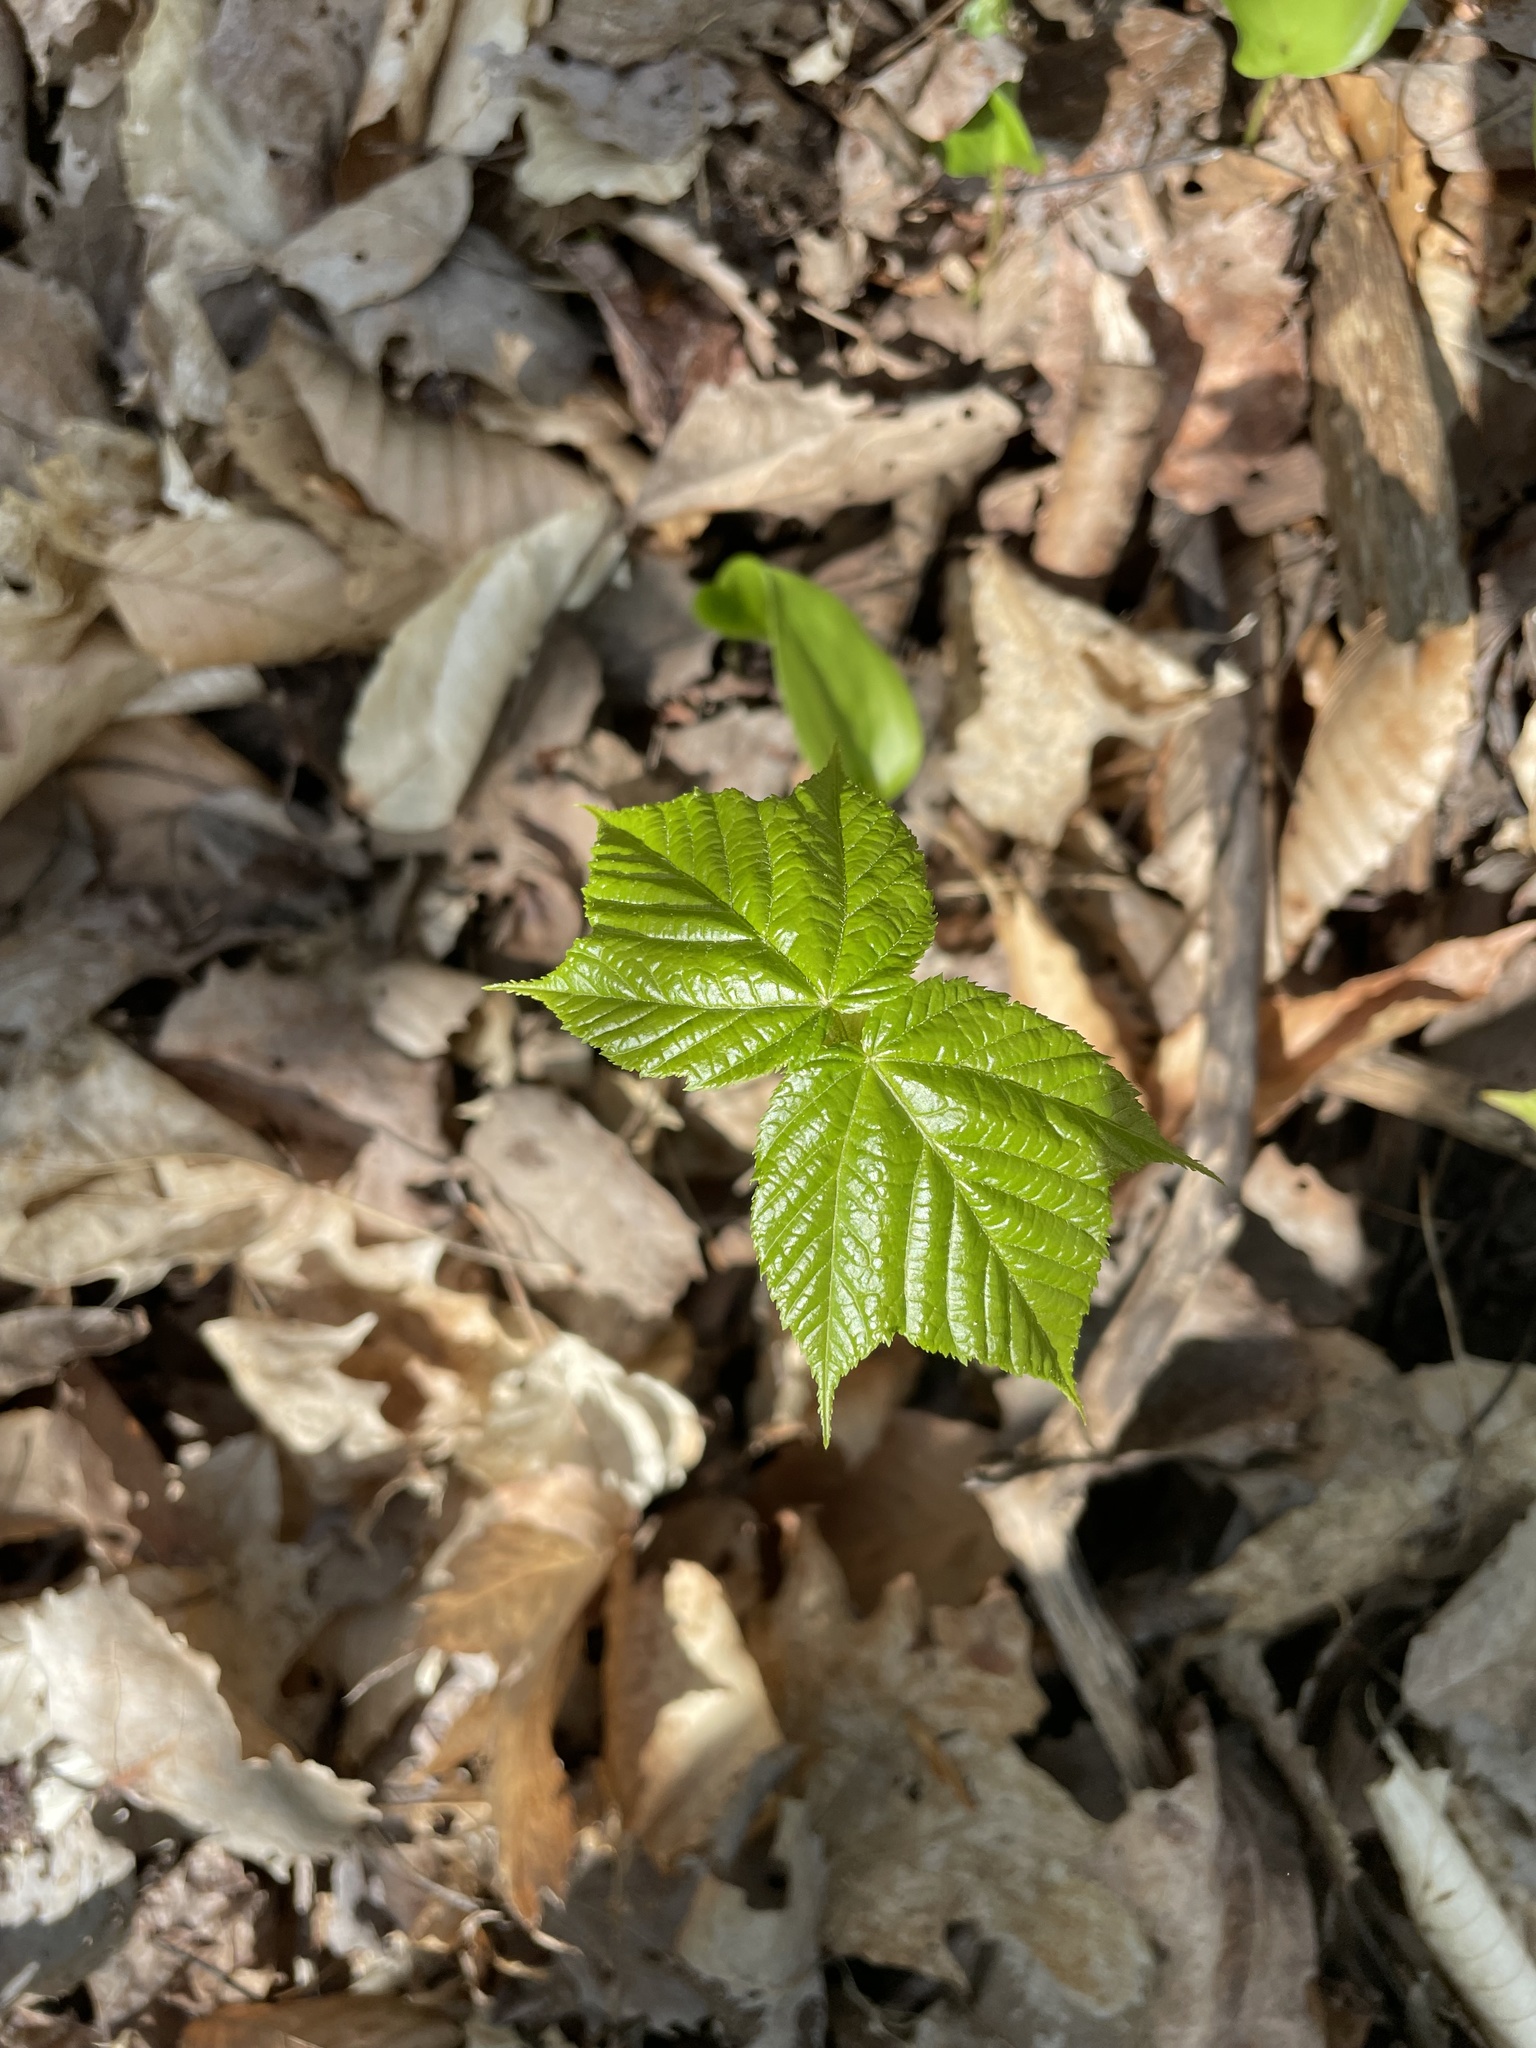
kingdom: Plantae
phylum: Tracheophyta
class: Magnoliopsida
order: Sapindales
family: Sapindaceae
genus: Acer
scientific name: Acer pensylvanicum
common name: Moosewood
